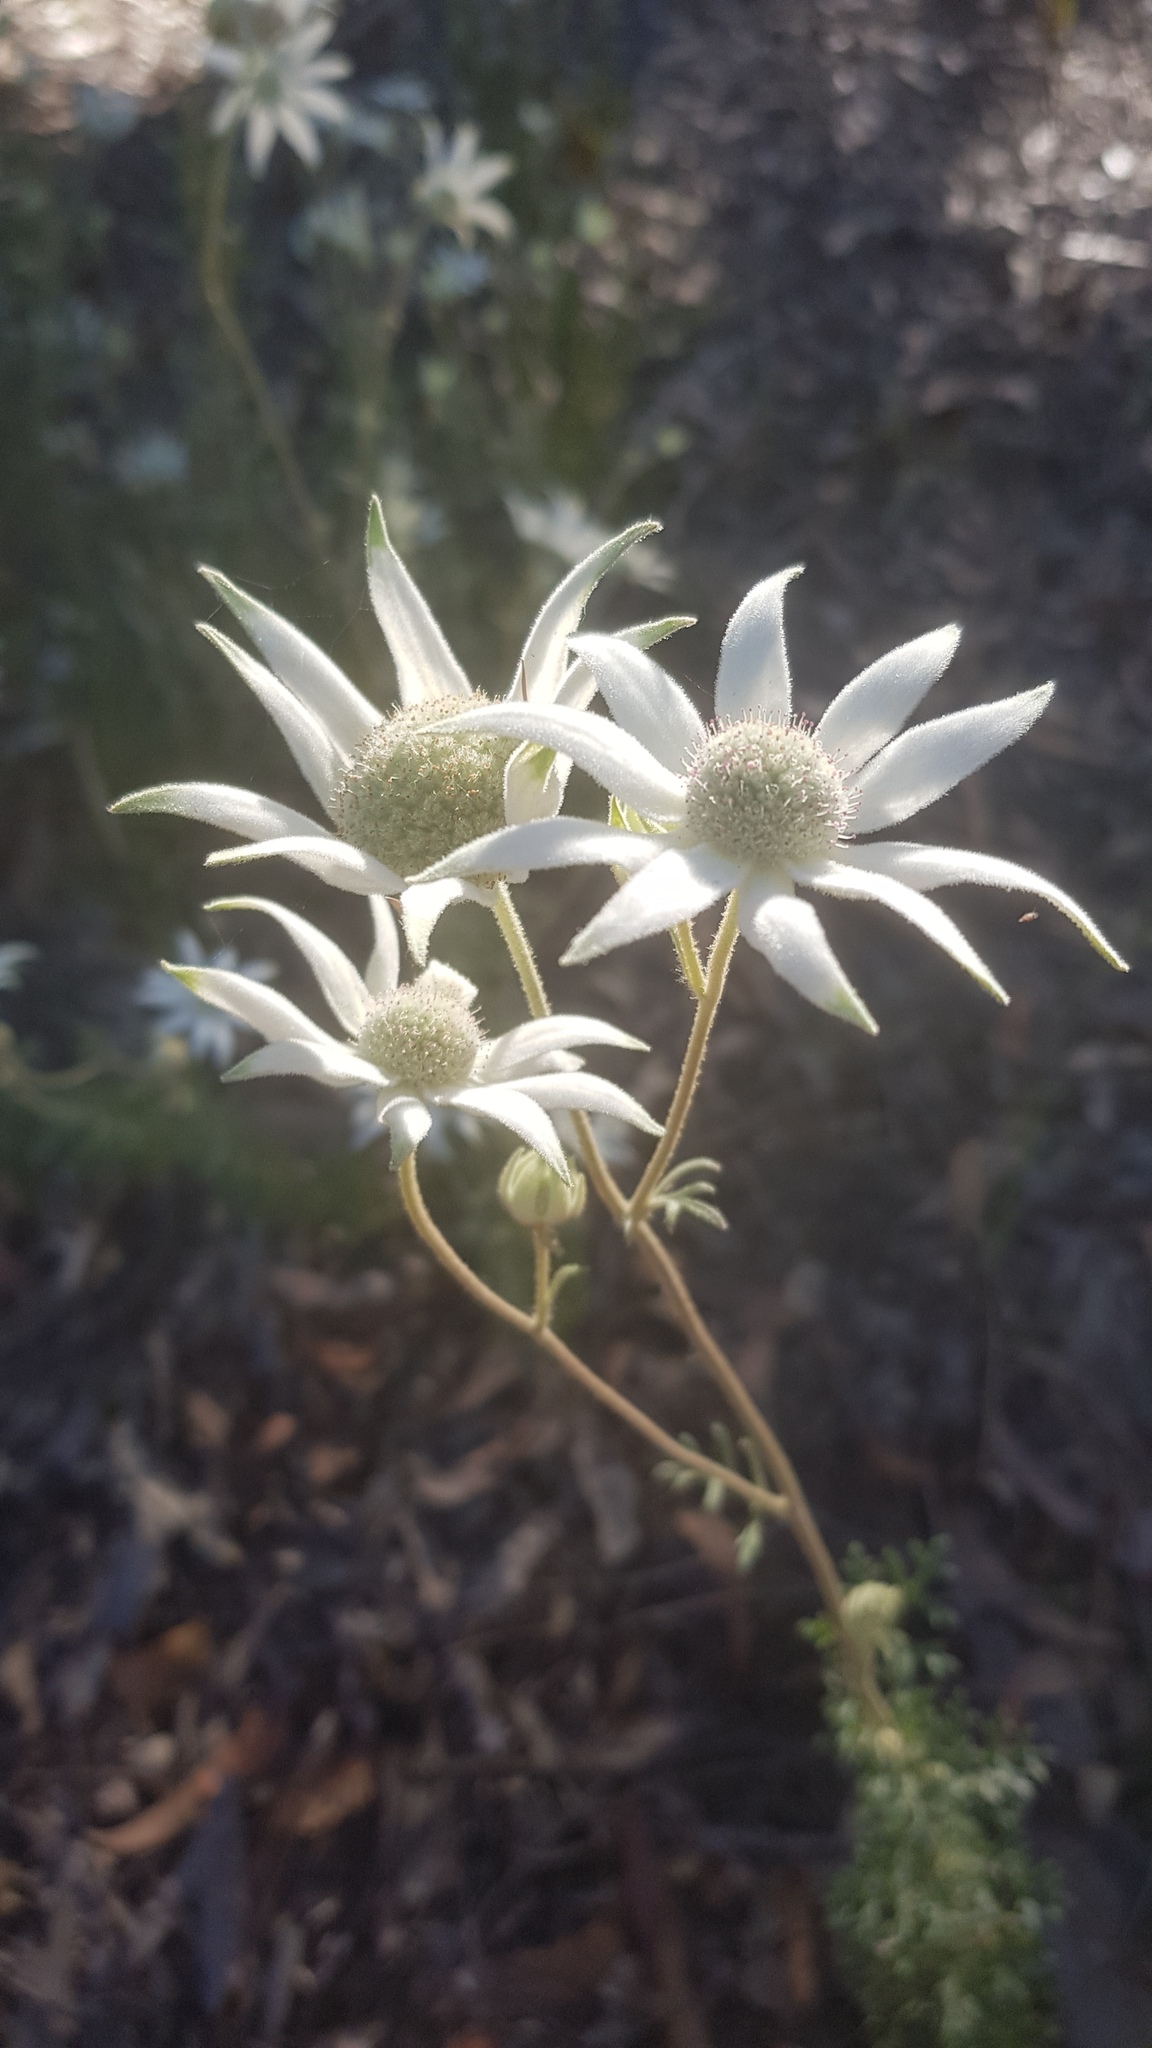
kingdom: Plantae
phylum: Tracheophyta
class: Magnoliopsida
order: Apiales
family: Apiaceae
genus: Actinotus
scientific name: Actinotus helianthi
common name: Flannel-flower
